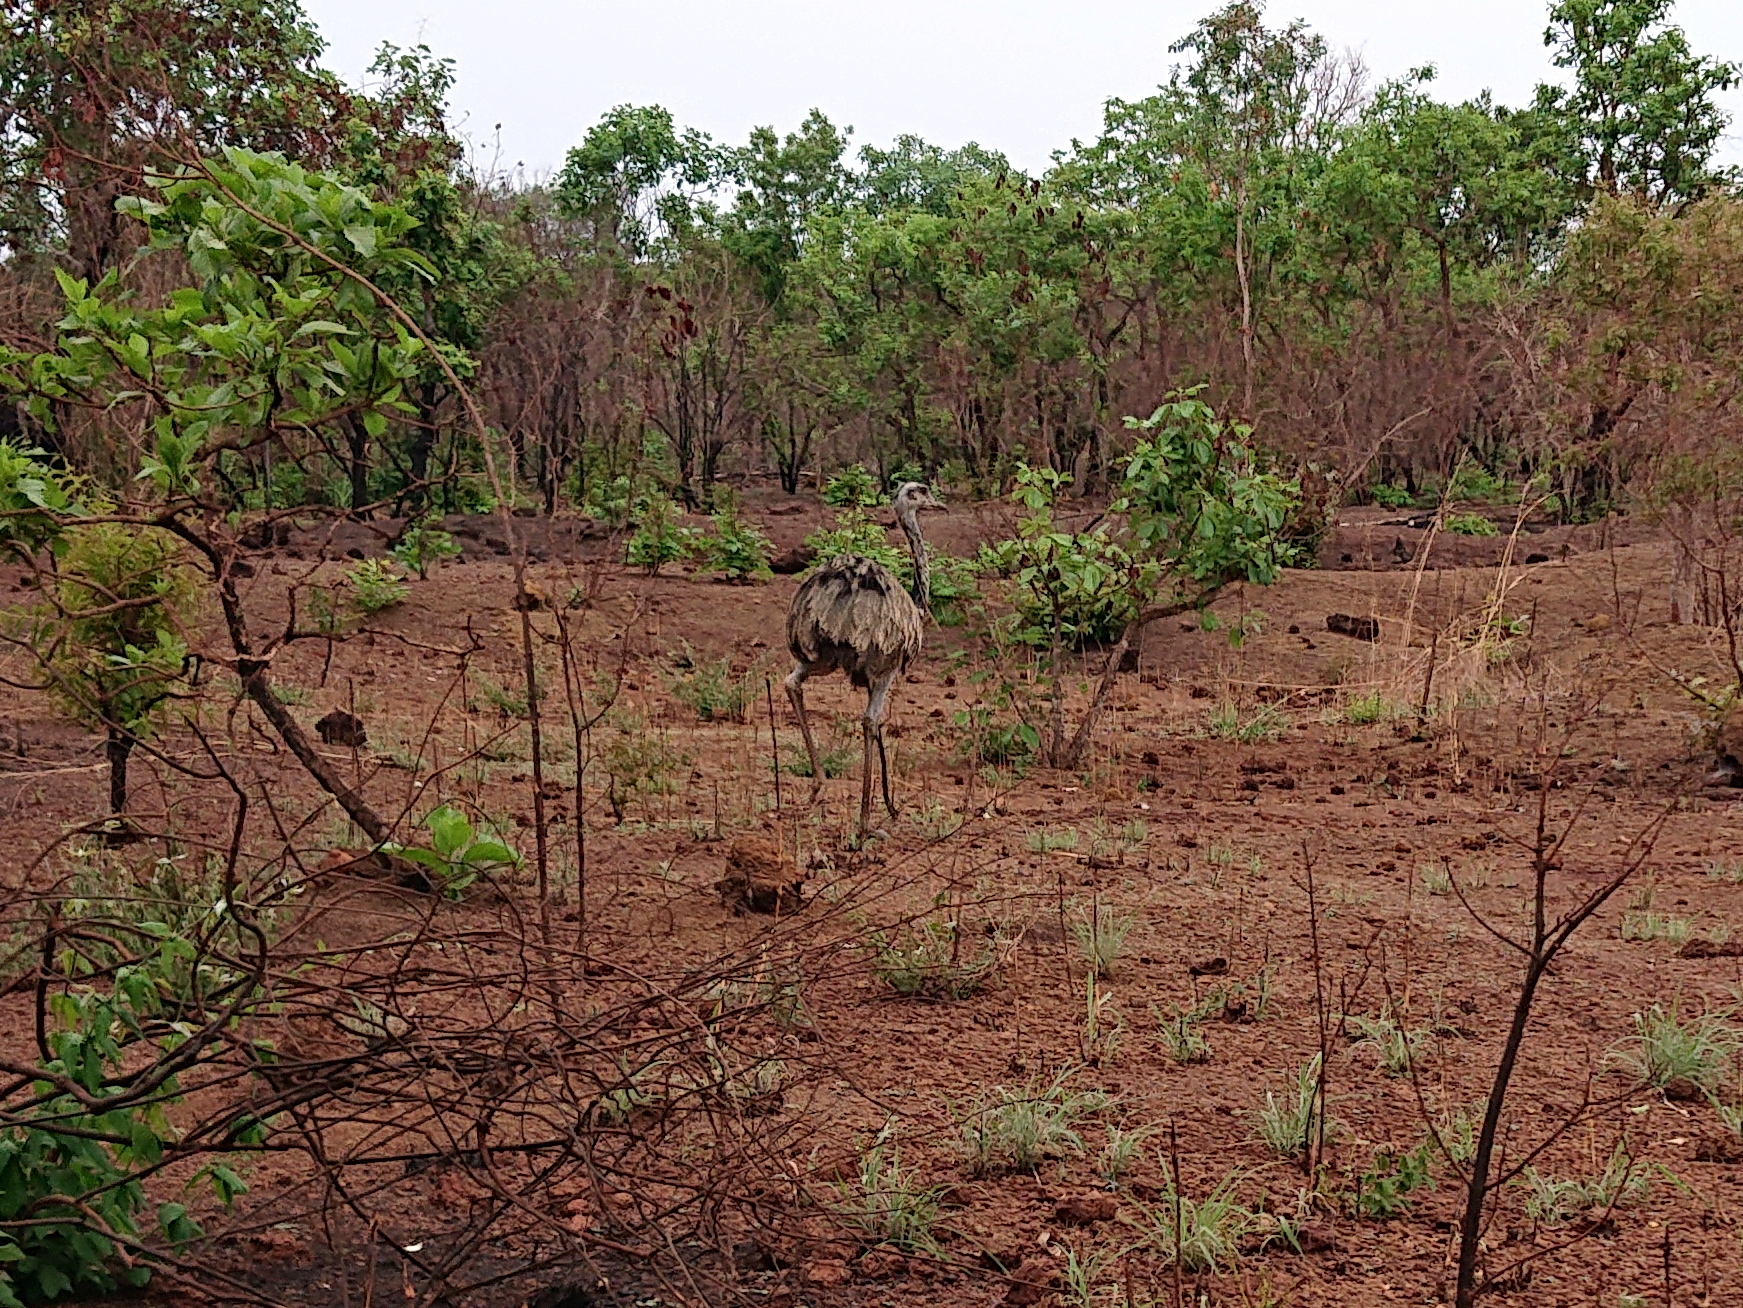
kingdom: Animalia
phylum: Chordata
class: Aves
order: Rheiformes
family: Rheidae
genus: Rhea
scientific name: Rhea americana
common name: Greater rhea
